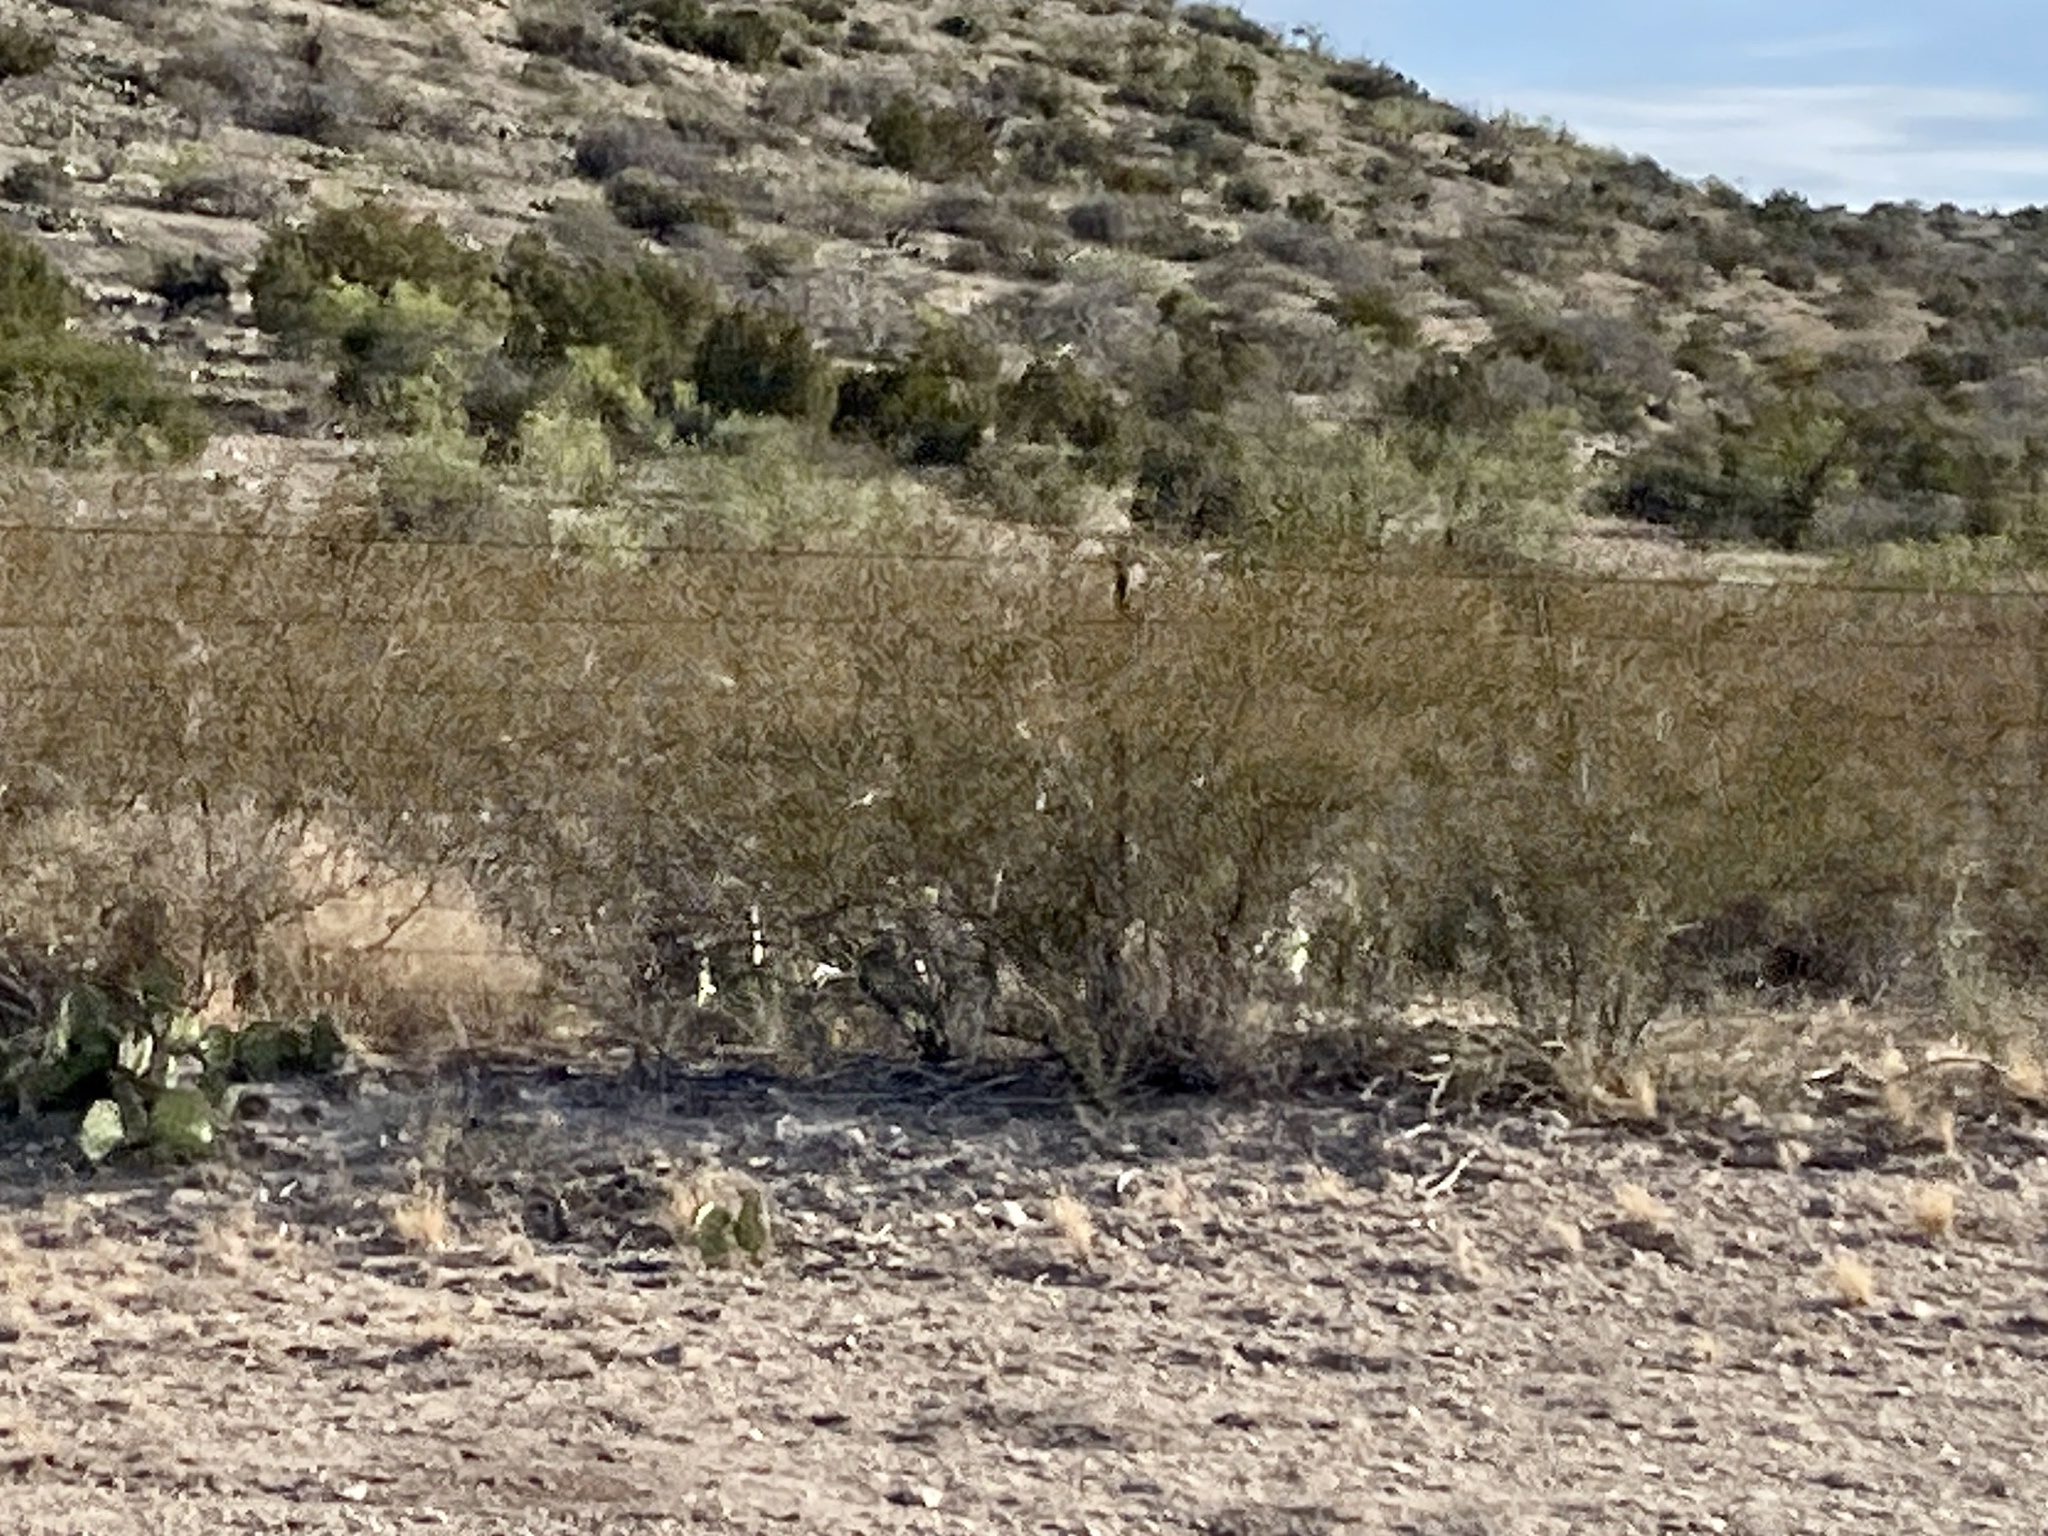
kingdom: Plantae
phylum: Tracheophyta
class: Magnoliopsida
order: Zygophyllales
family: Zygophyllaceae
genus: Larrea
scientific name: Larrea tridentata
